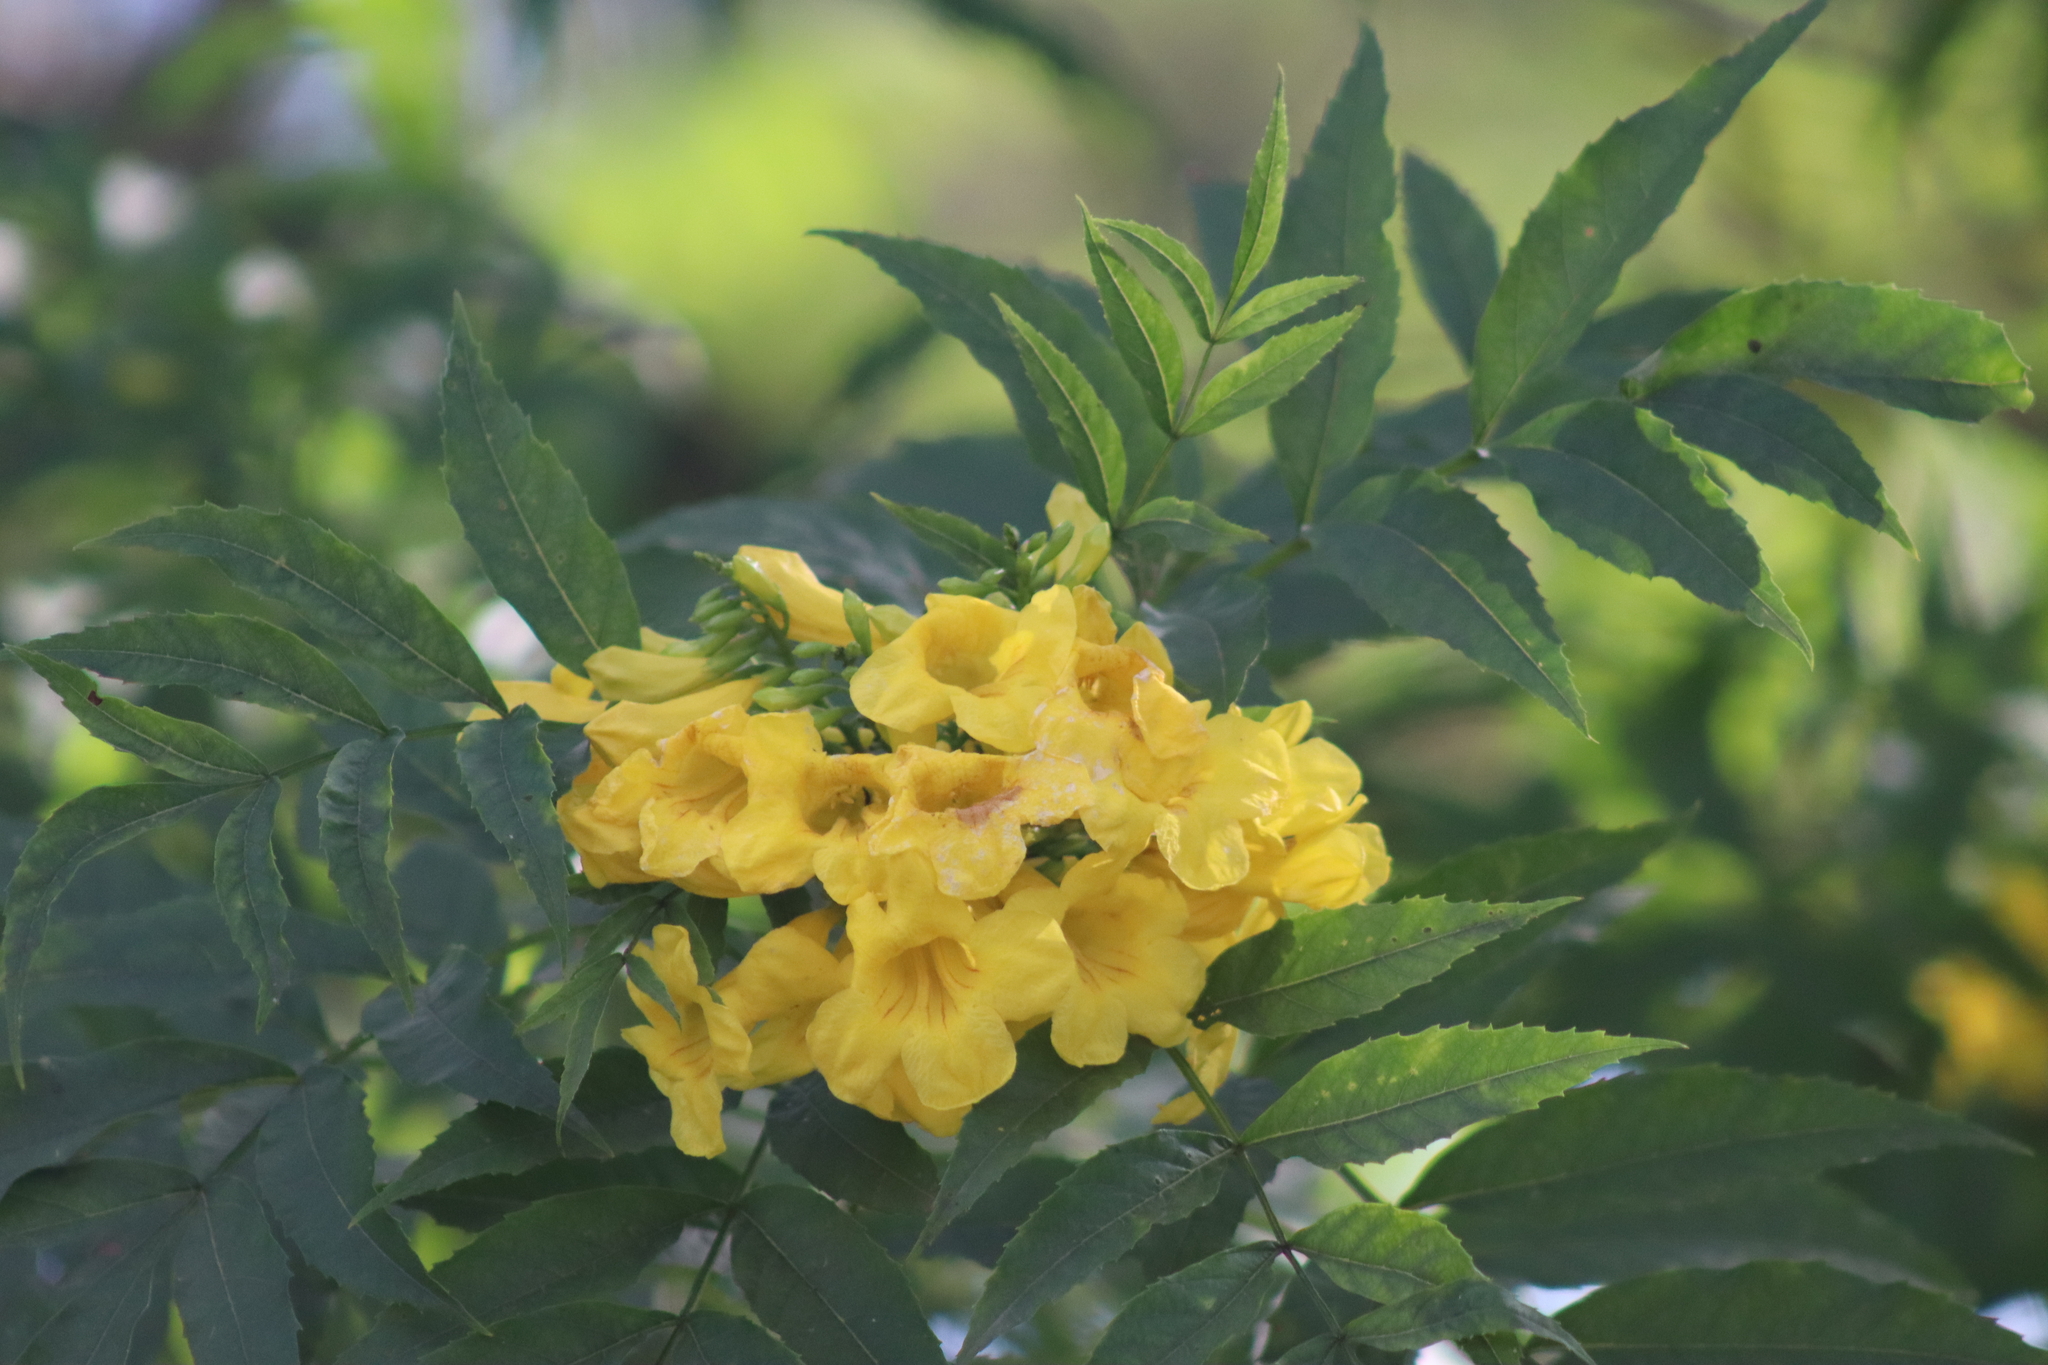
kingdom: Plantae
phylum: Tracheophyta
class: Magnoliopsida
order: Lamiales
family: Bignoniaceae
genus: Tecoma
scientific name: Tecoma stans
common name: Yellow trumpetbush
